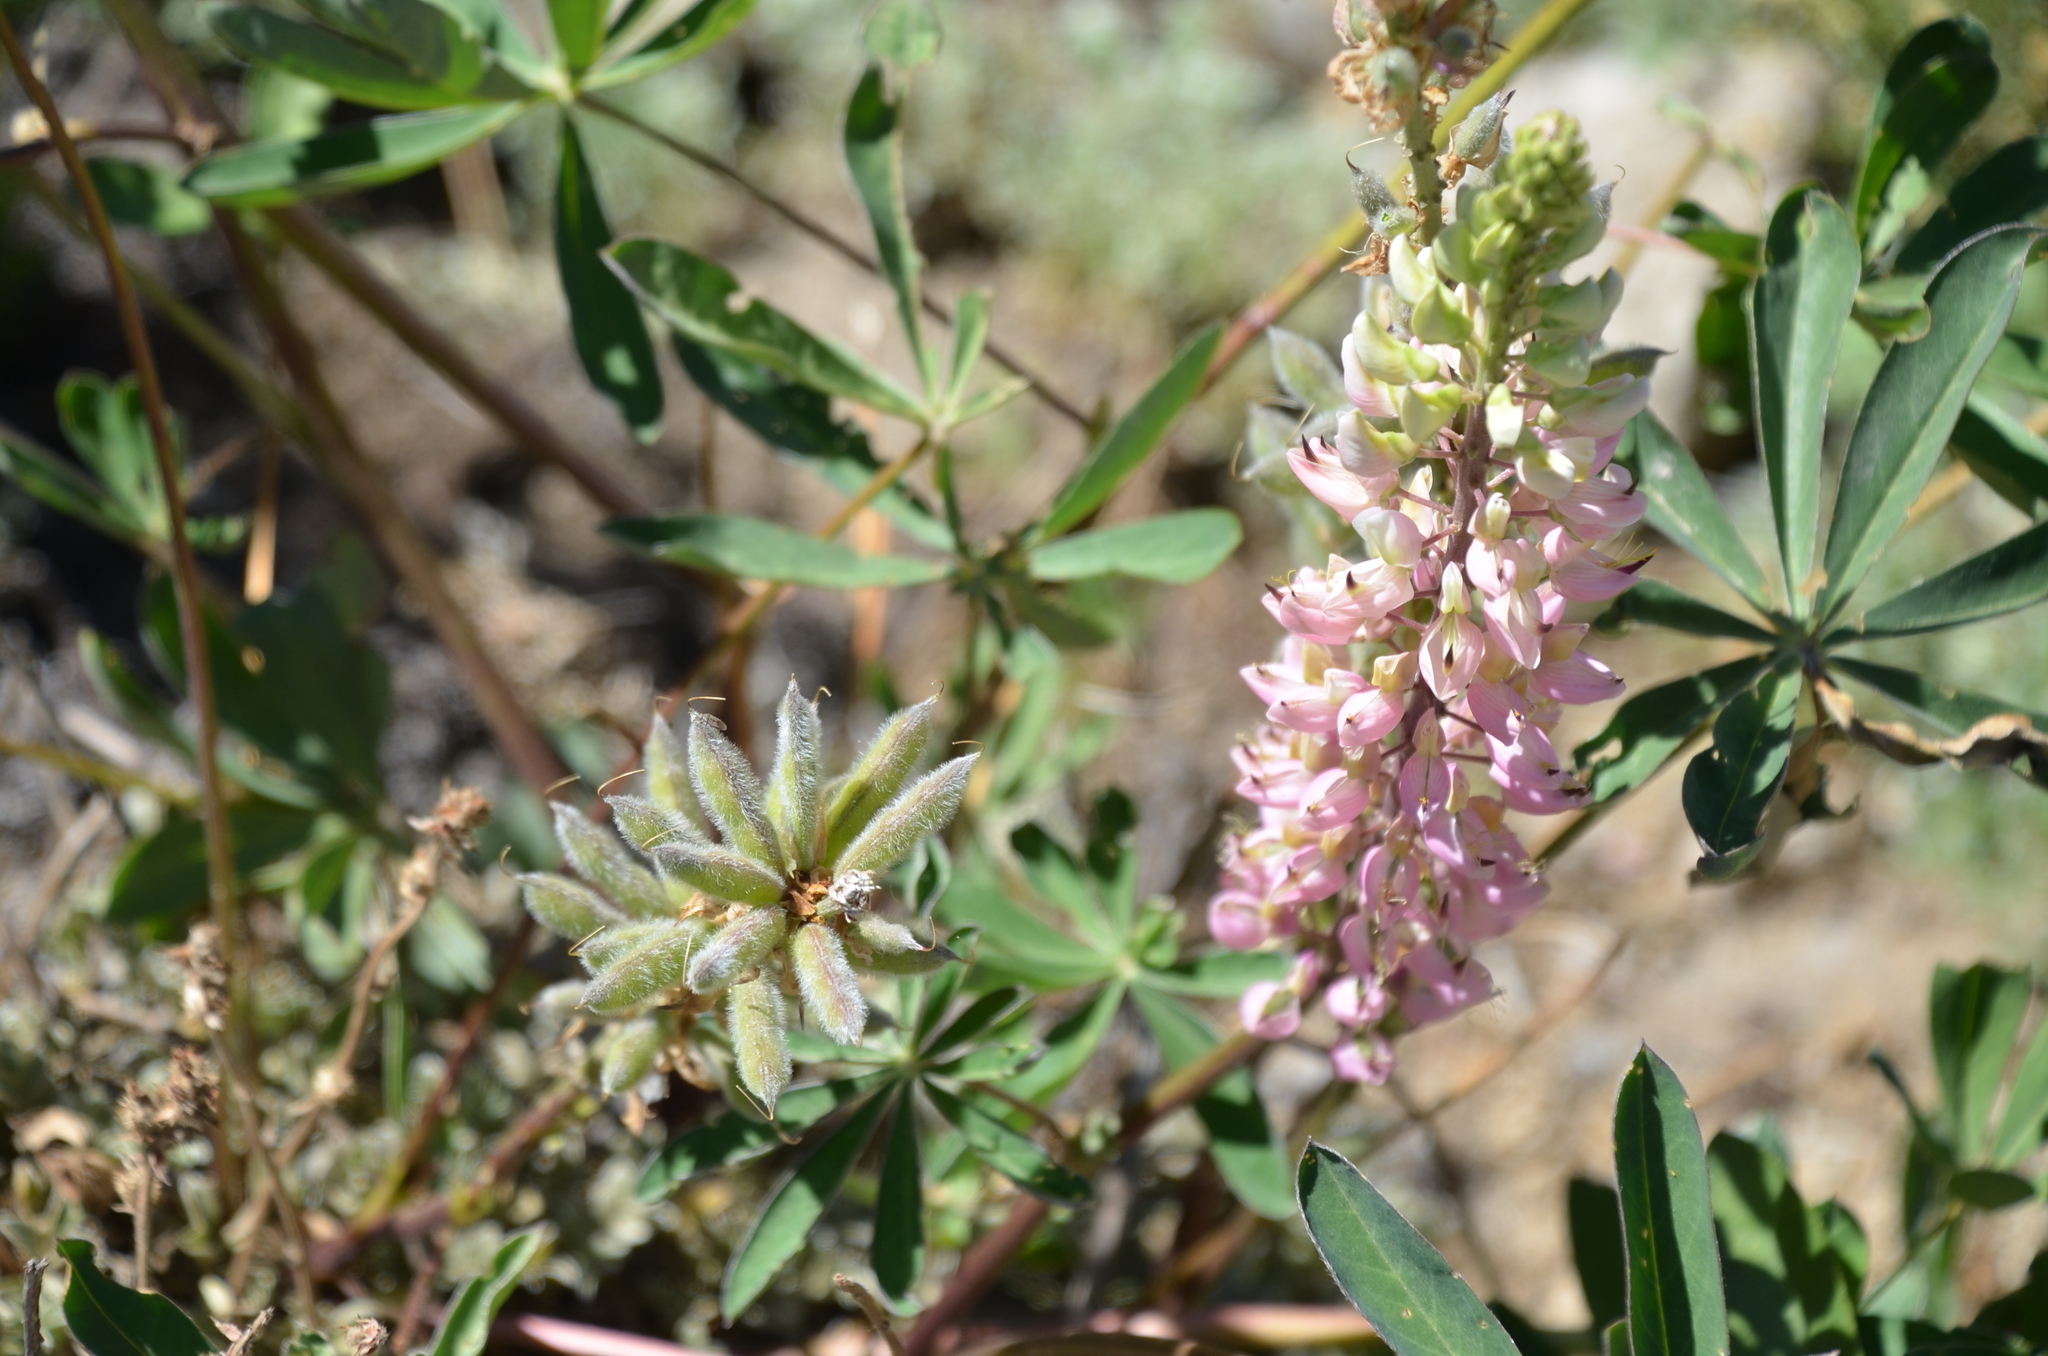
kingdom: Plantae
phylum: Tracheophyta
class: Magnoliopsida
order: Fabales
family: Fabaceae
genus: Lupinus
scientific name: Lupinus polyphyllus
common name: Garden lupin
